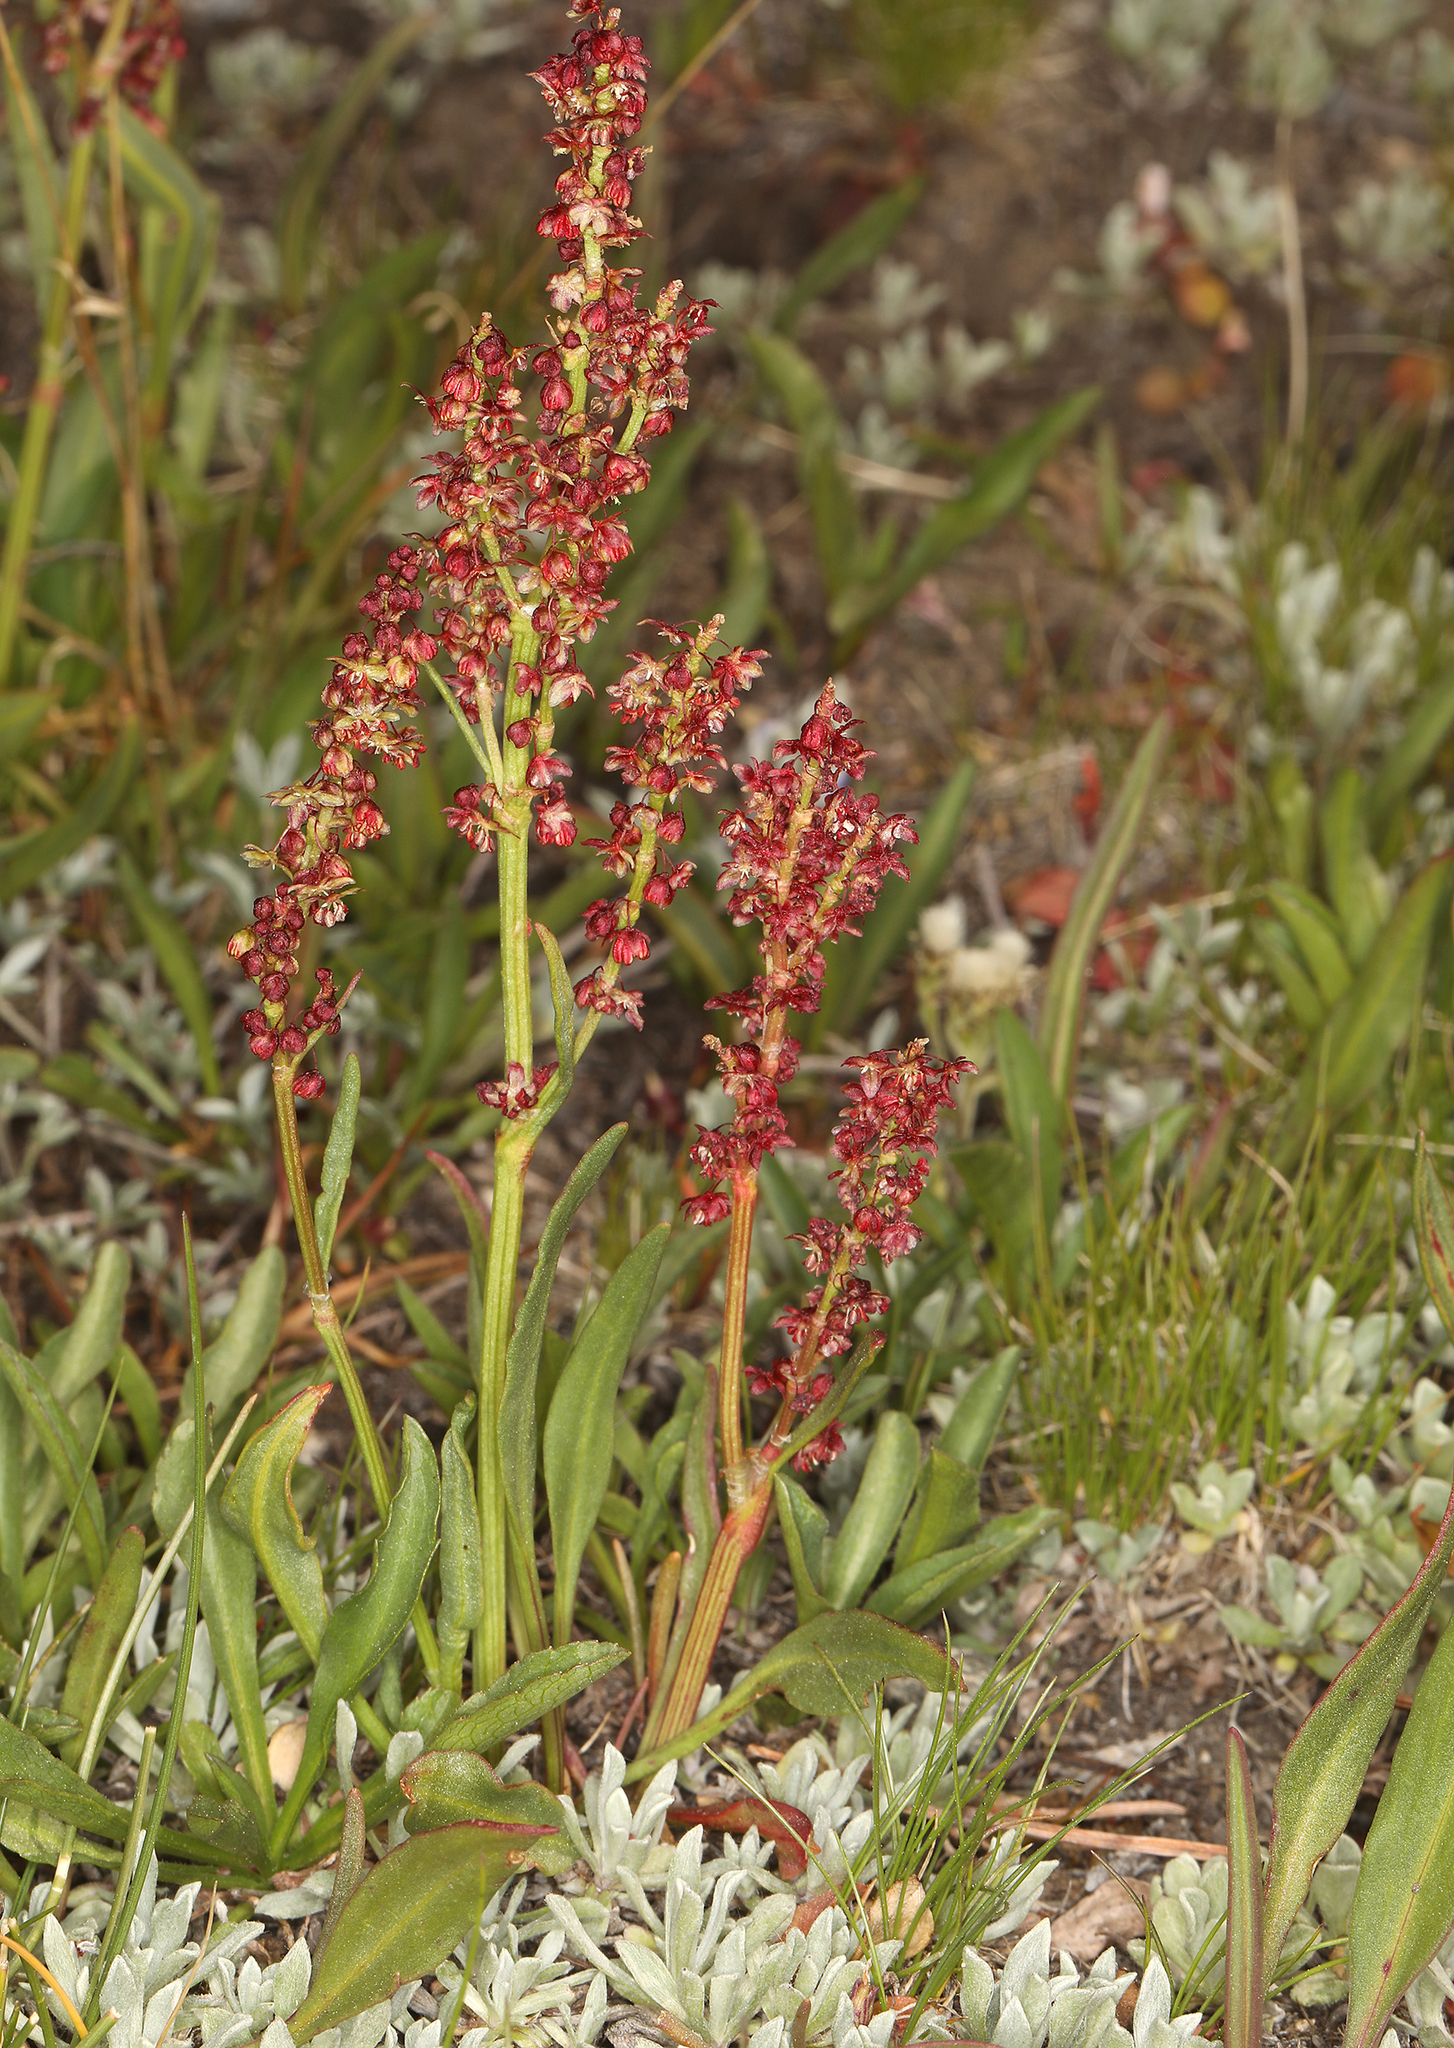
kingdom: Plantae
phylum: Tracheophyta
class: Magnoliopsida
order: Caryophyllales
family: Polygonaceae
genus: Rumex
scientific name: Rumex paucifolius
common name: Alpine sheep sorrel
